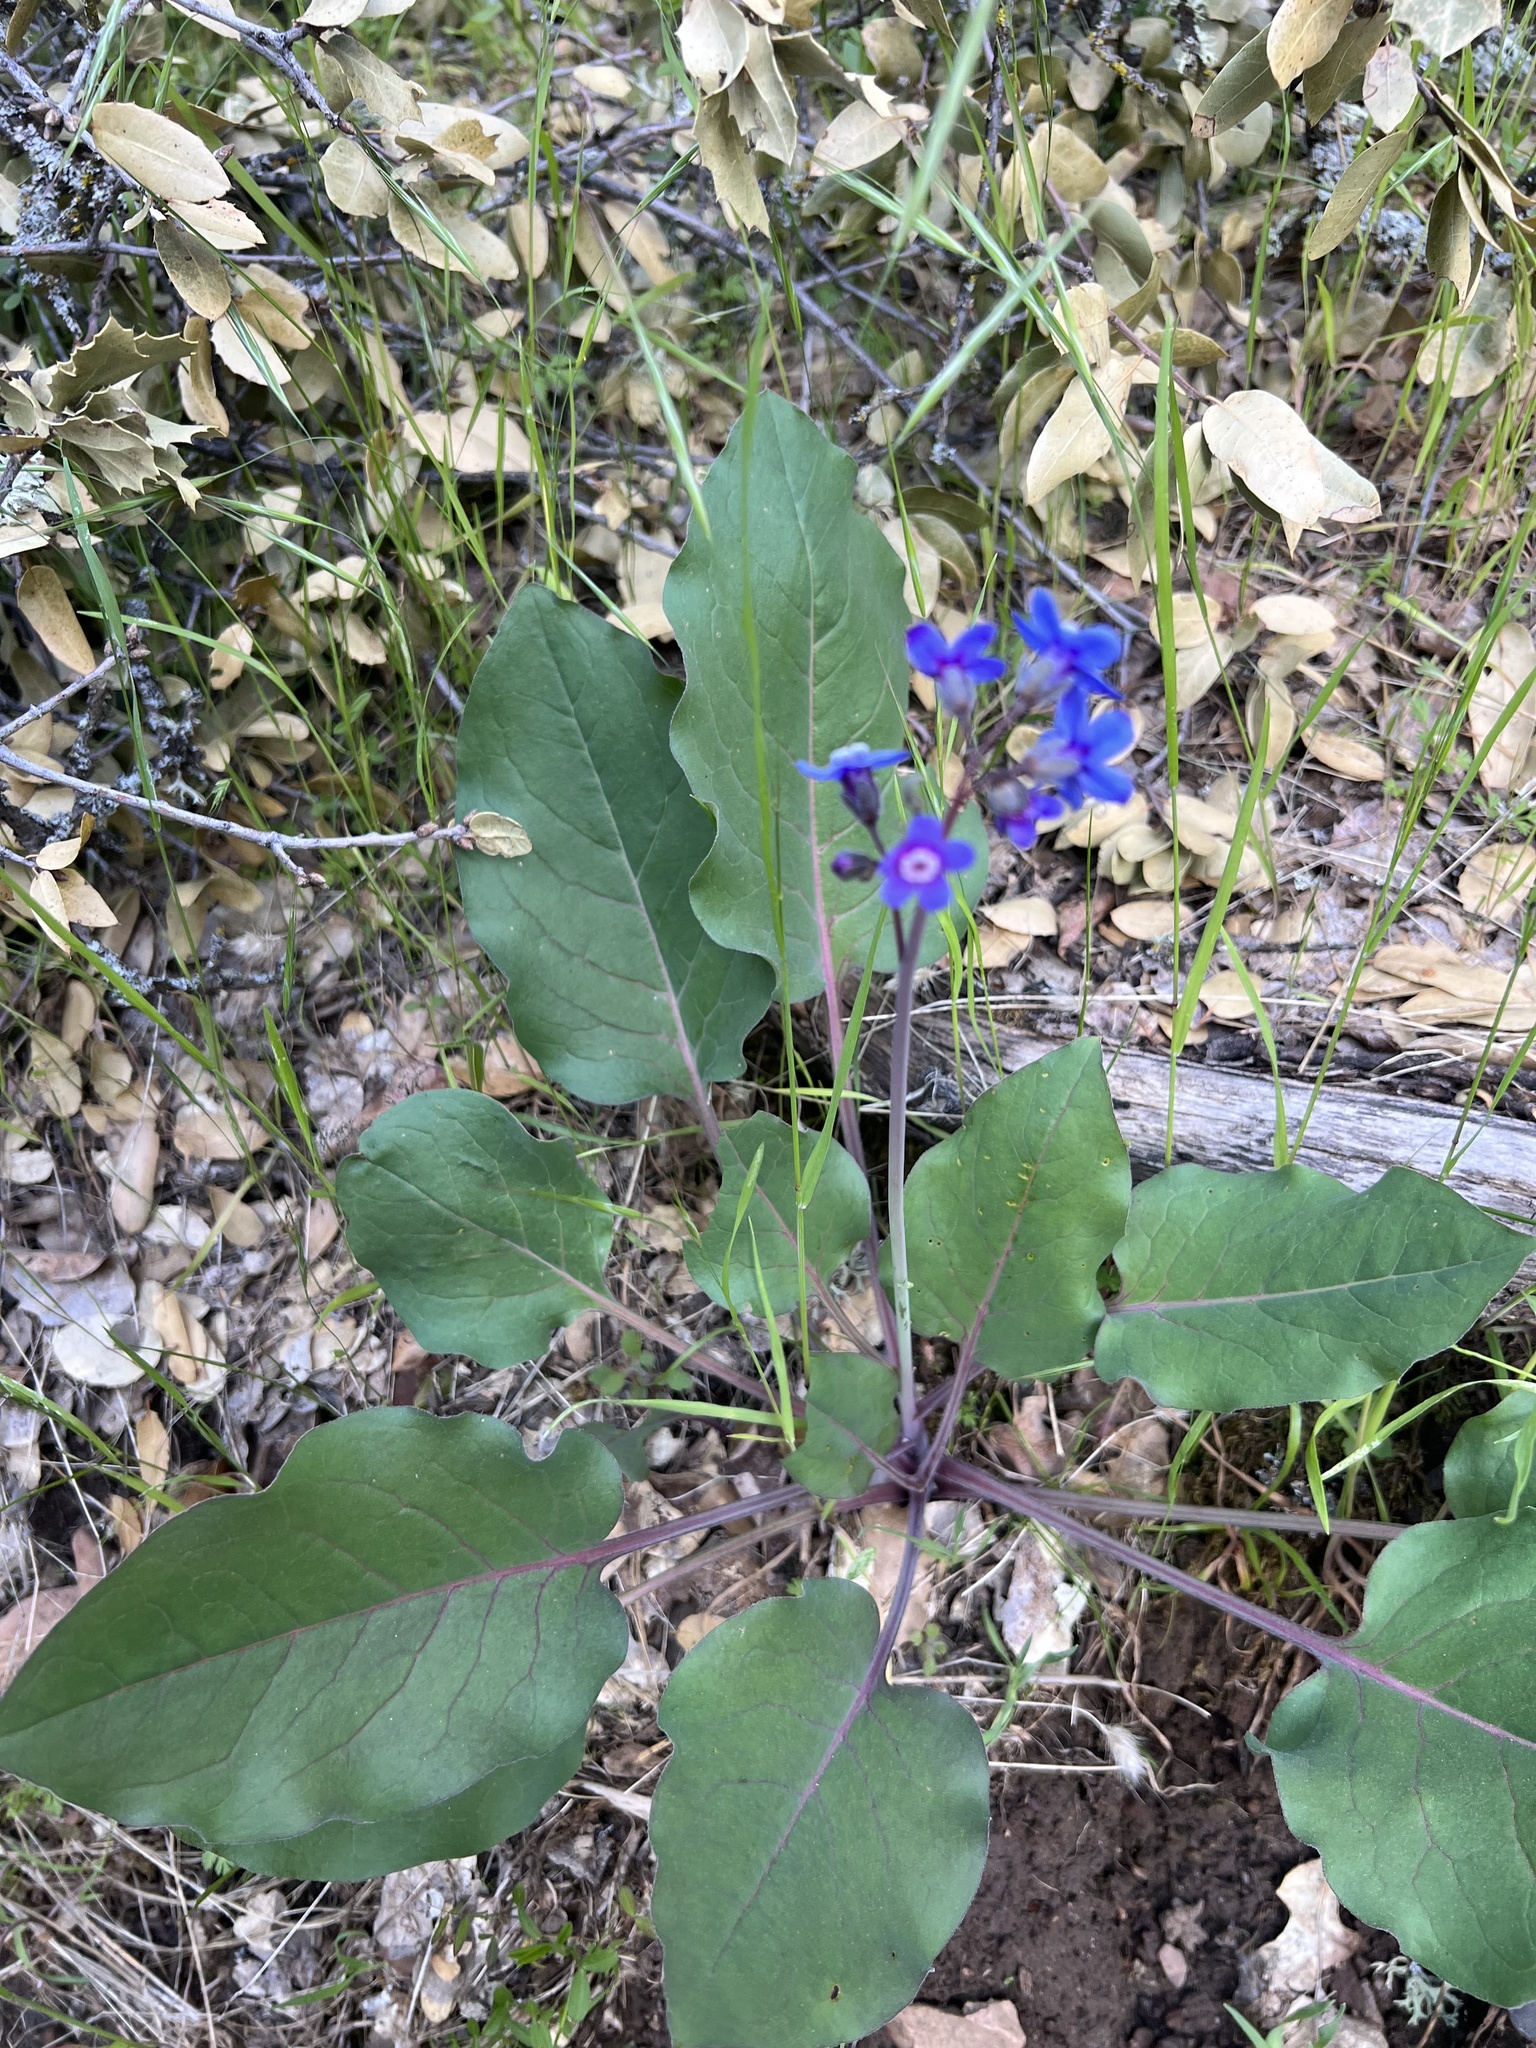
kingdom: Plantae
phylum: Tracheophyta
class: Magnoliopsida
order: Boraginales
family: Boraginaceae
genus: Adelinia
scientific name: Adelinia grande
